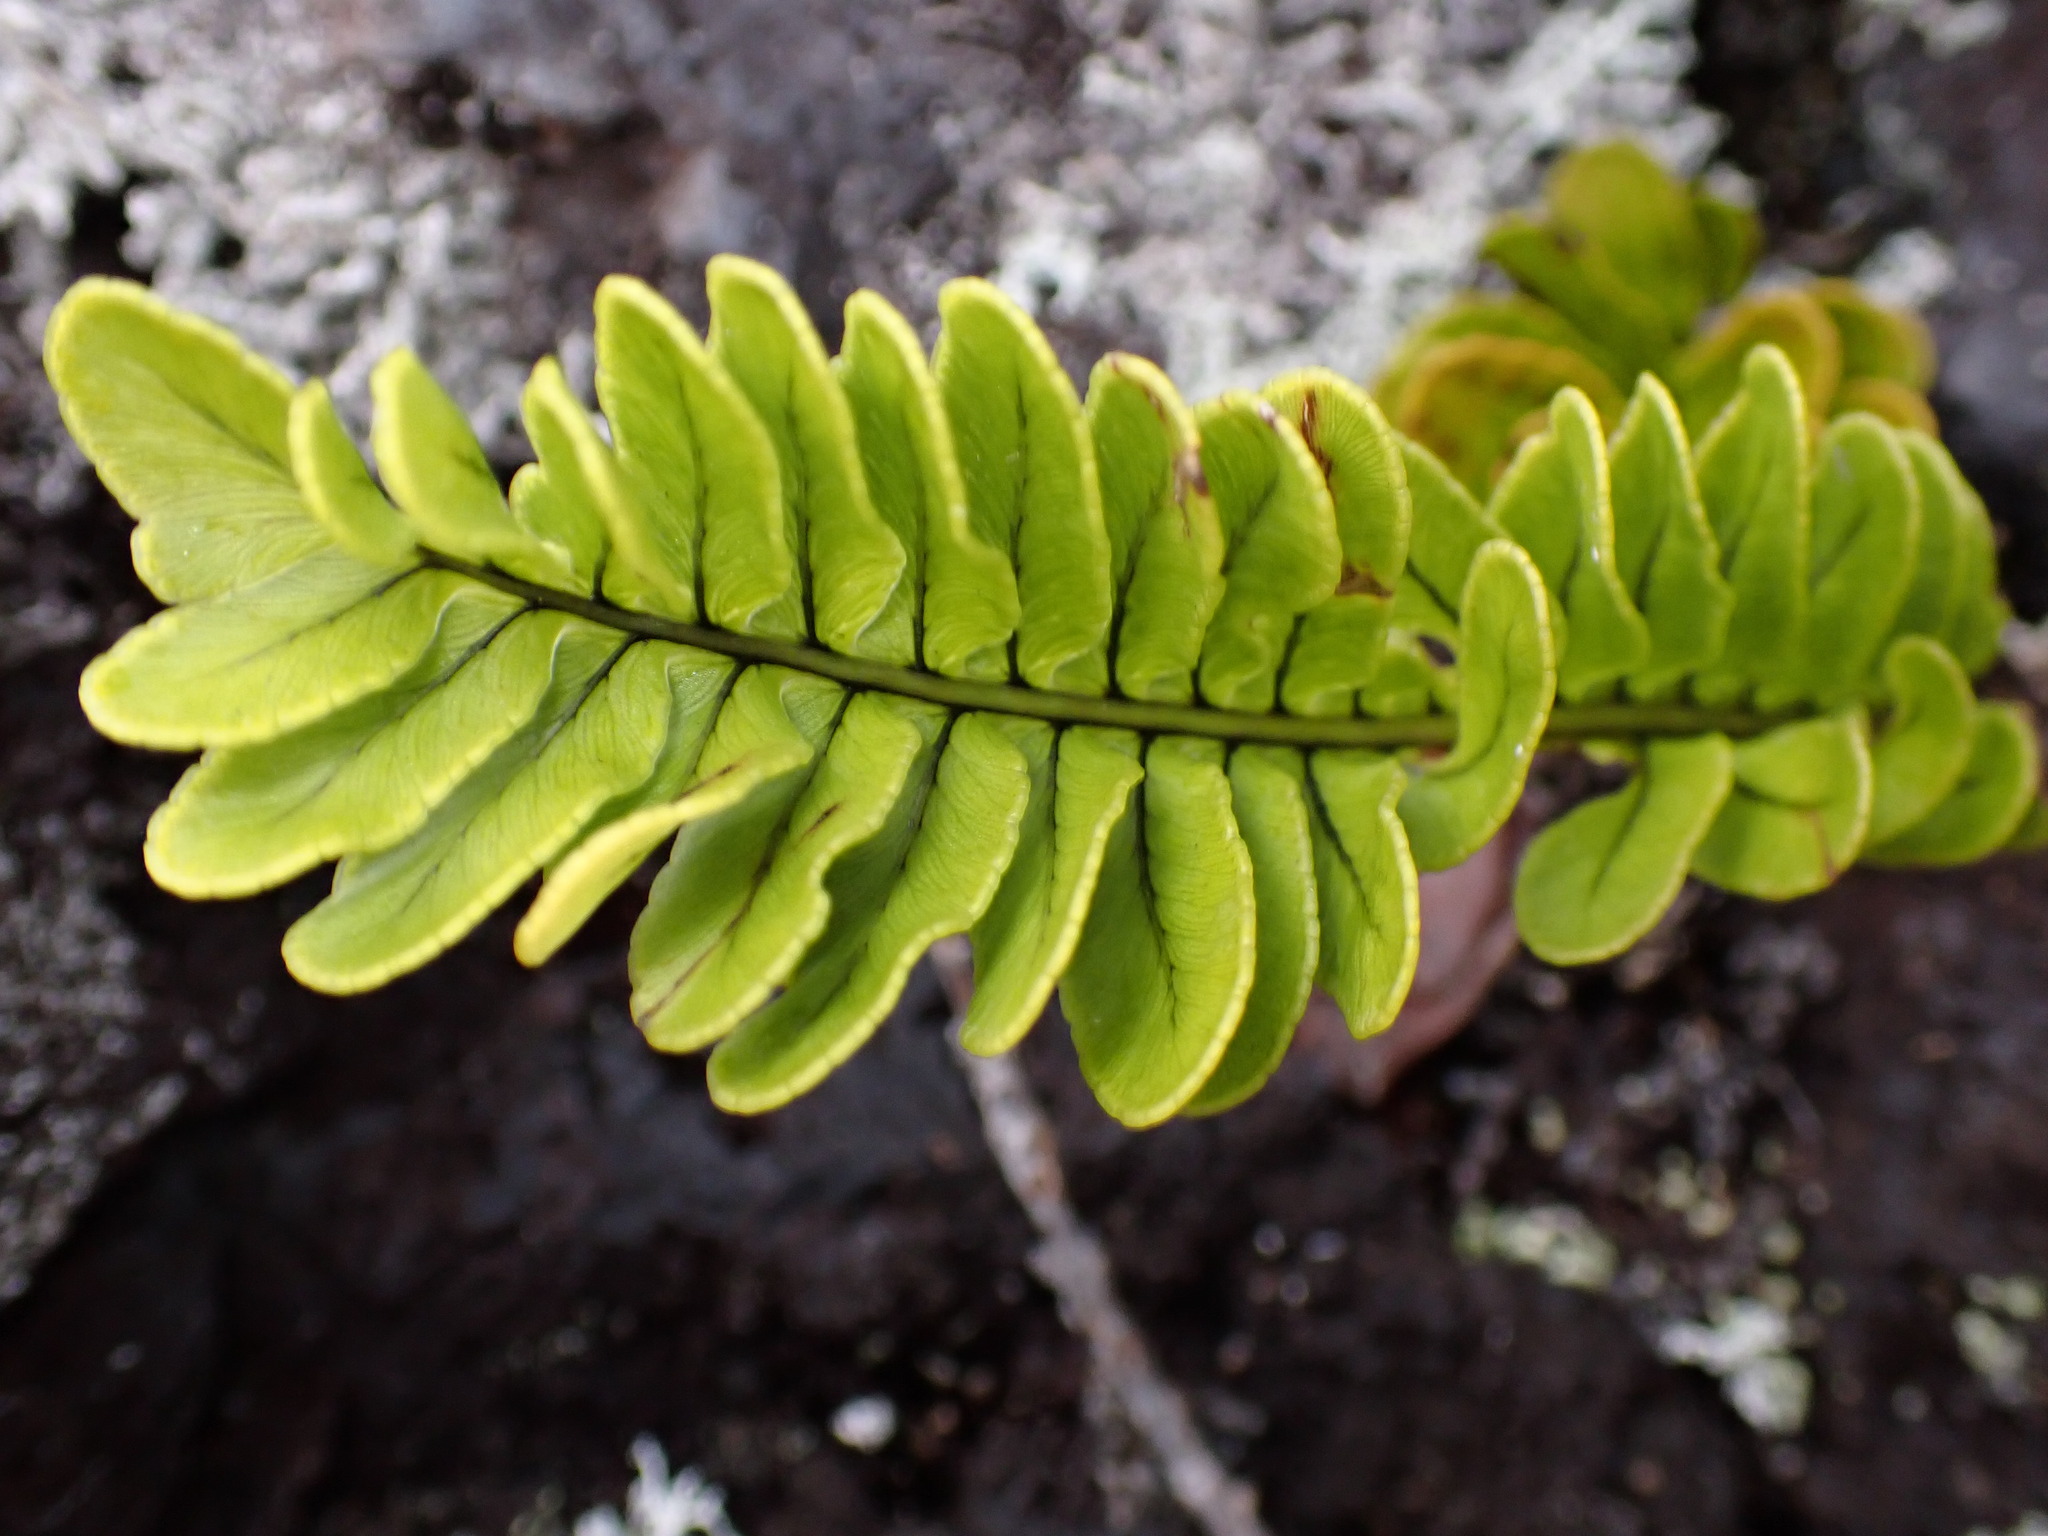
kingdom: Plantae
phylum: Tracheophyta
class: Polypodiopsida
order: Polypodiales
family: Polypodiaceae
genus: Polypodium
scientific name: Polypodium pellucidum
